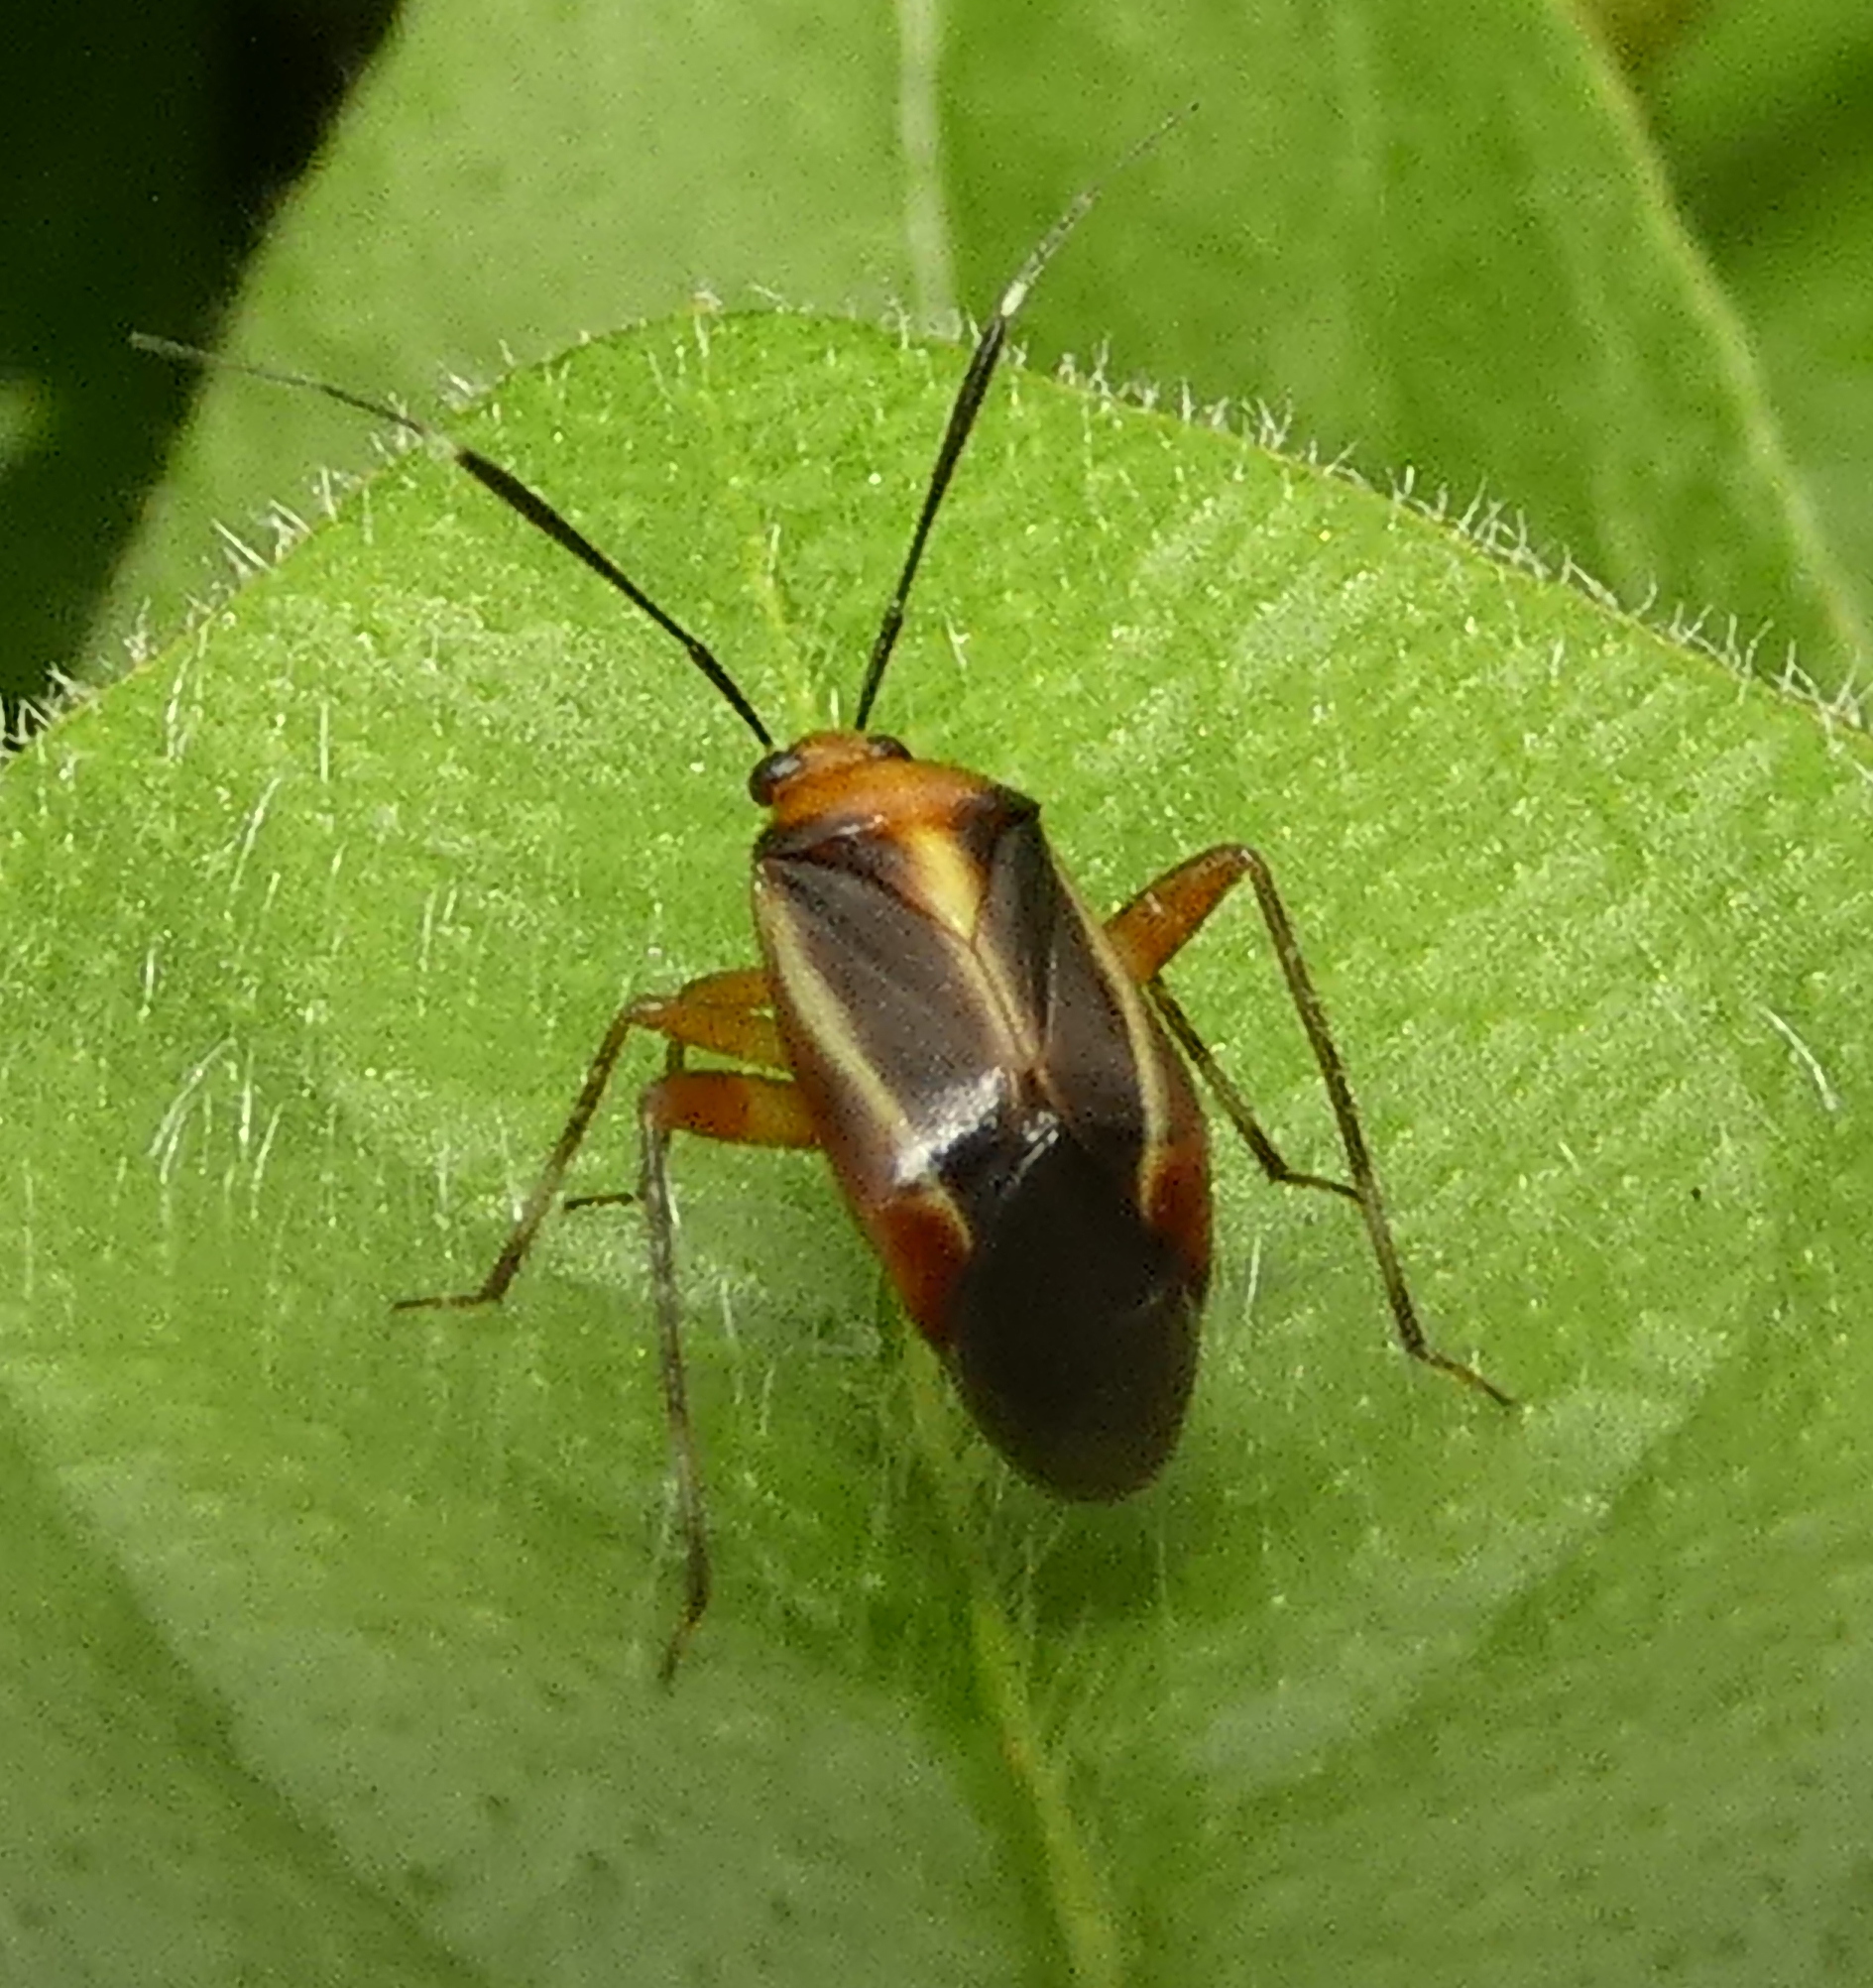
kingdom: Animalia
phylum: Arthropoda
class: Insecta
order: Hemiptera
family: Miridae
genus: Horciasinus
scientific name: Horciasinus signoreti
